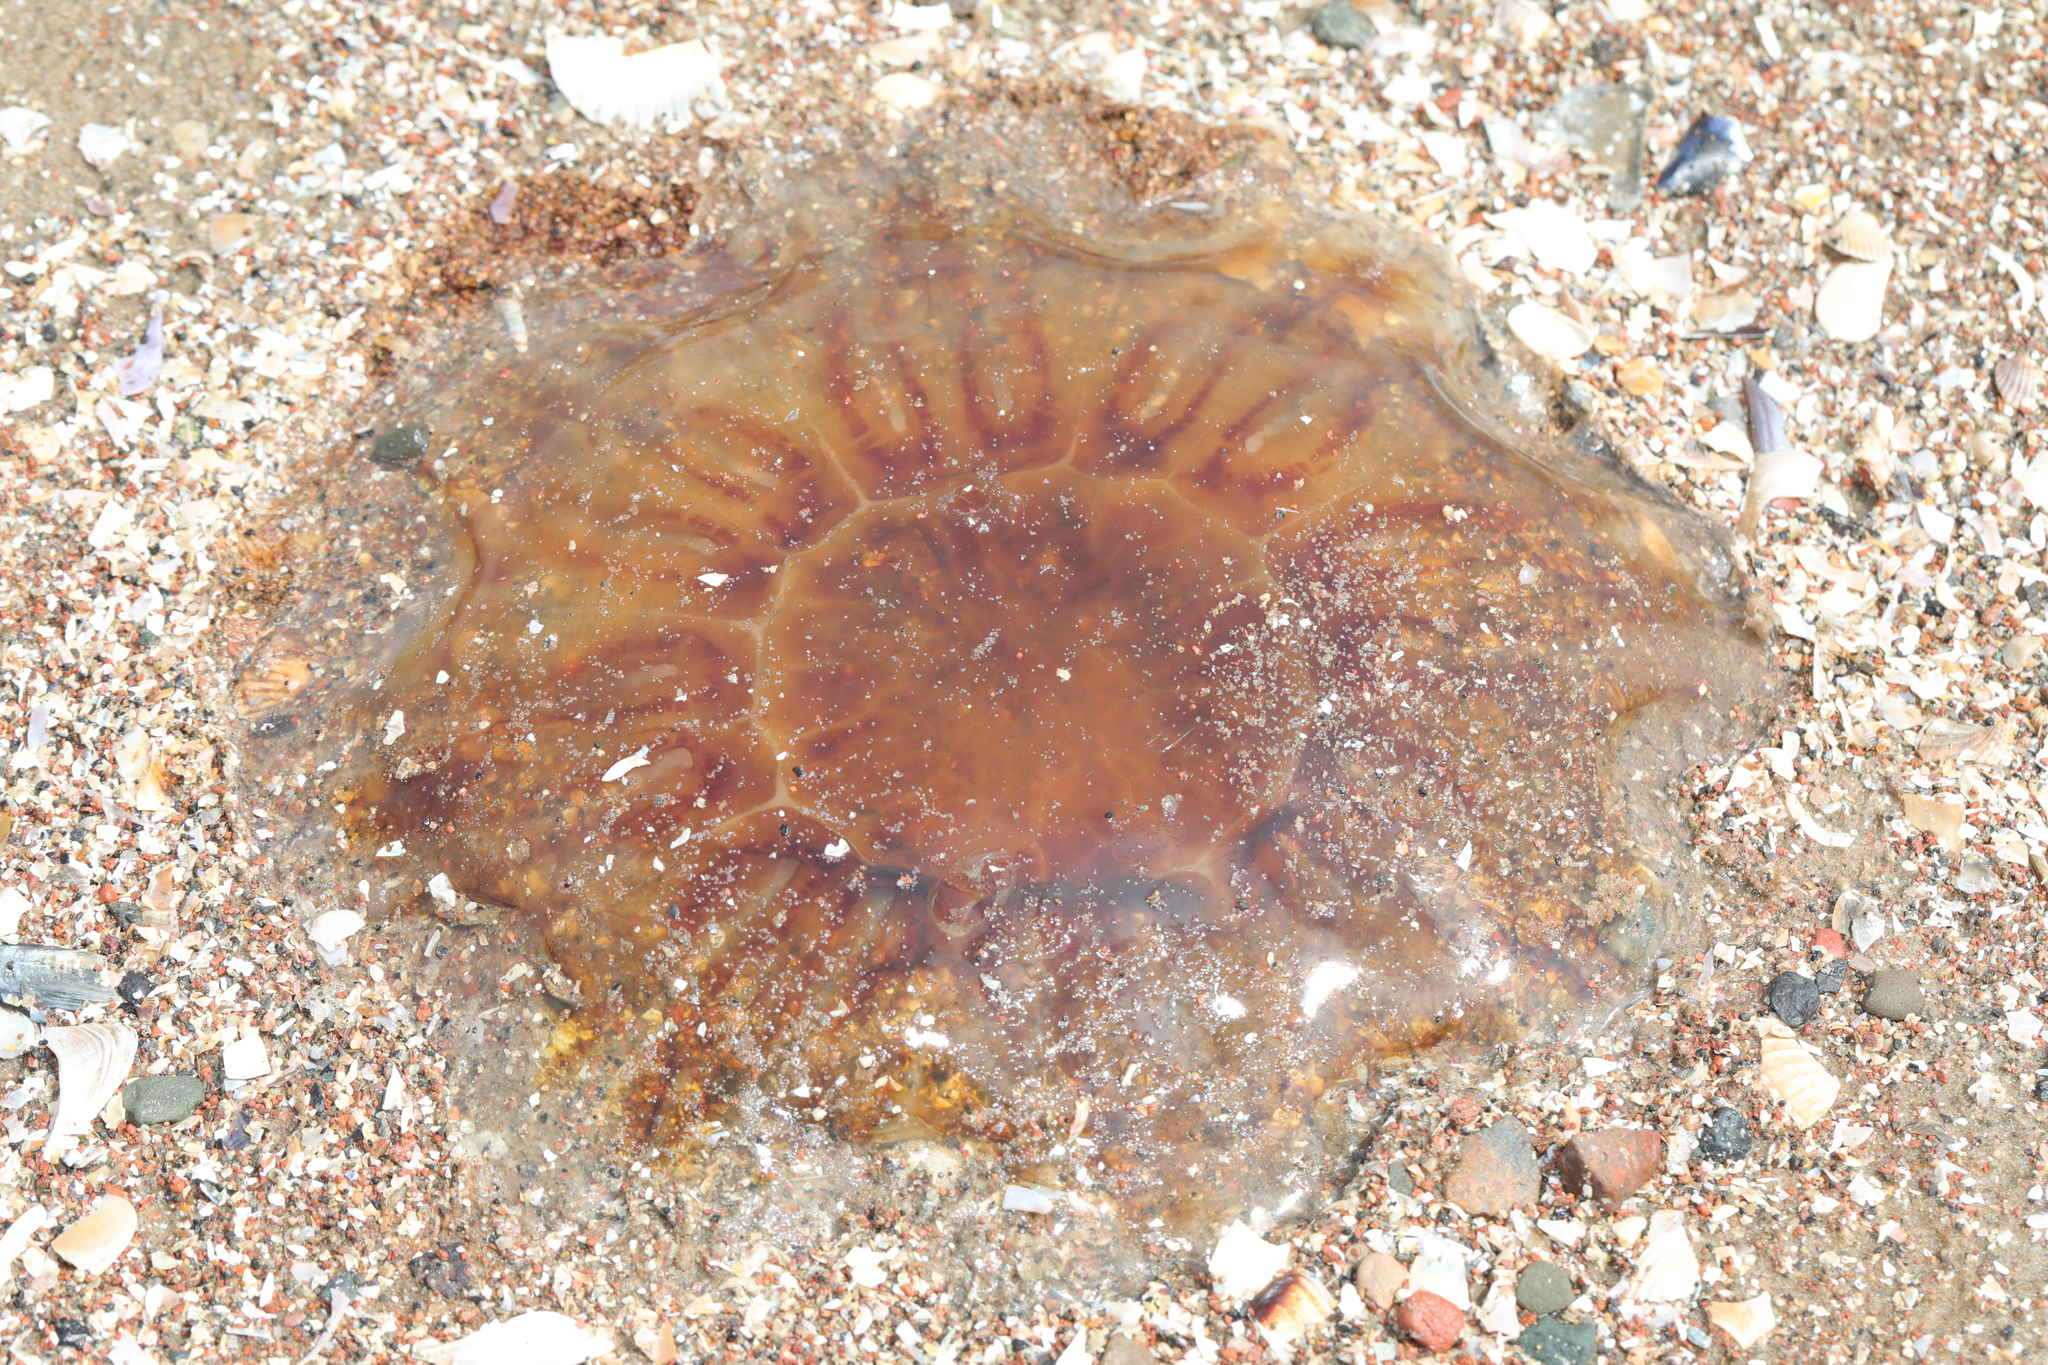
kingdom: Animalia
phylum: Cnidaria
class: Scyphozoa
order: Semaeostomeae
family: Cyaneidae
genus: Cyanea
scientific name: Cyanea capillata
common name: Lion's mane jellyfish
